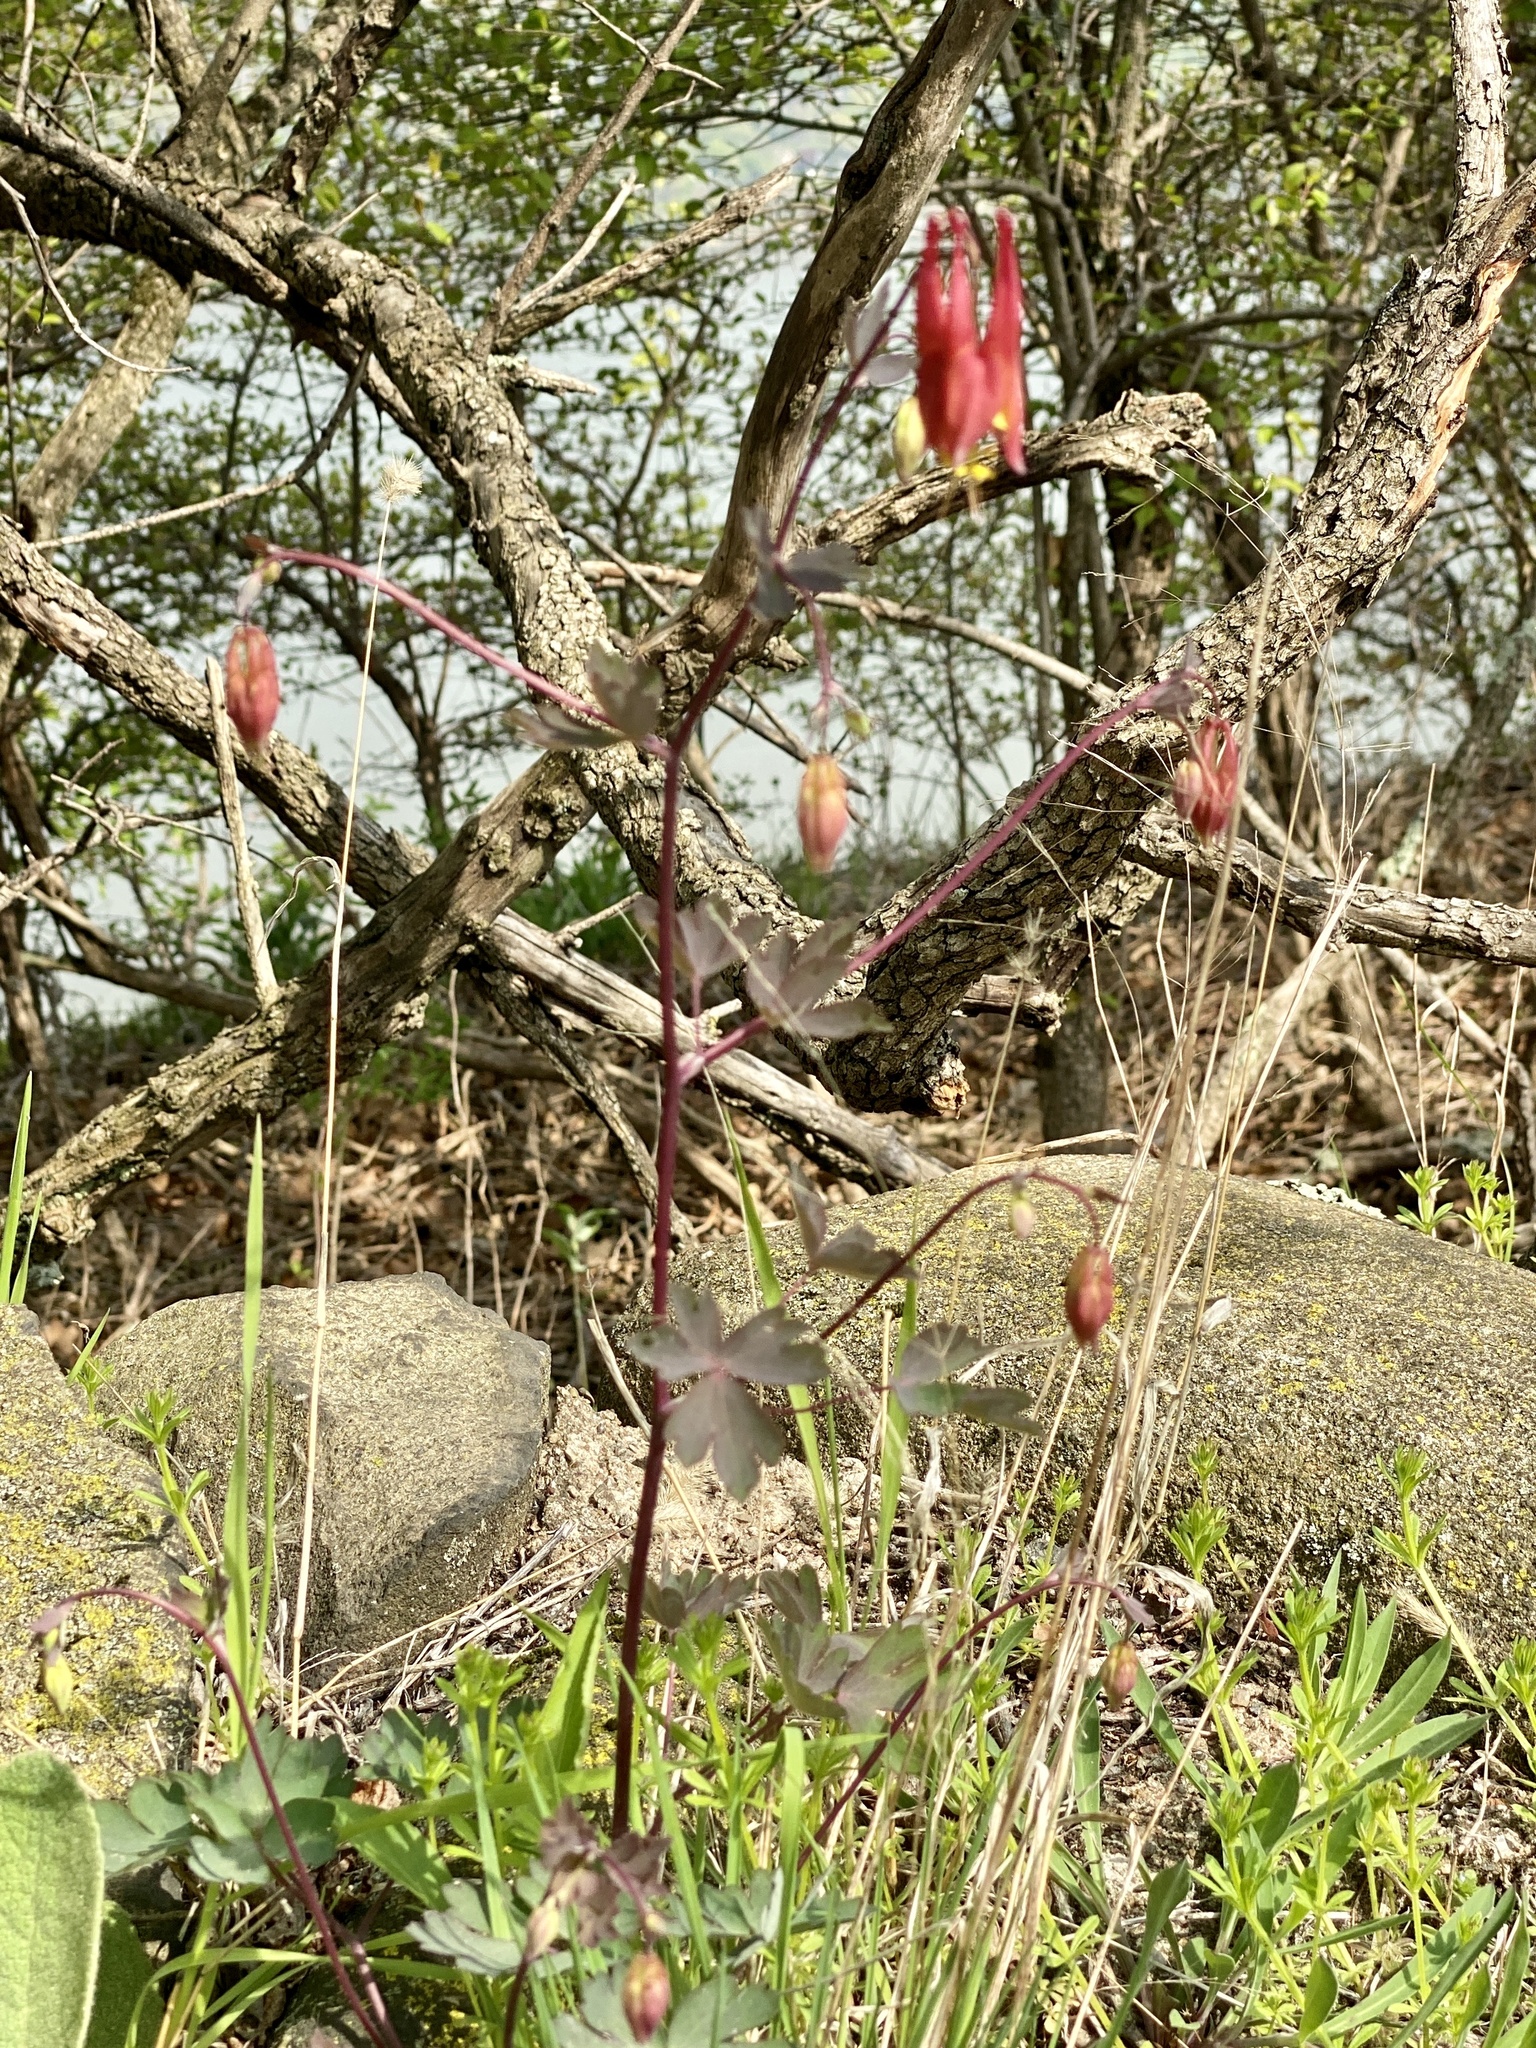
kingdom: Plantae
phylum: Tracheophyta
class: Magnoliopsida
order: Ranunculales
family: Ranunculaceae
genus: Aquilegia
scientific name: Aquilegia canadensis
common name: American columbine
